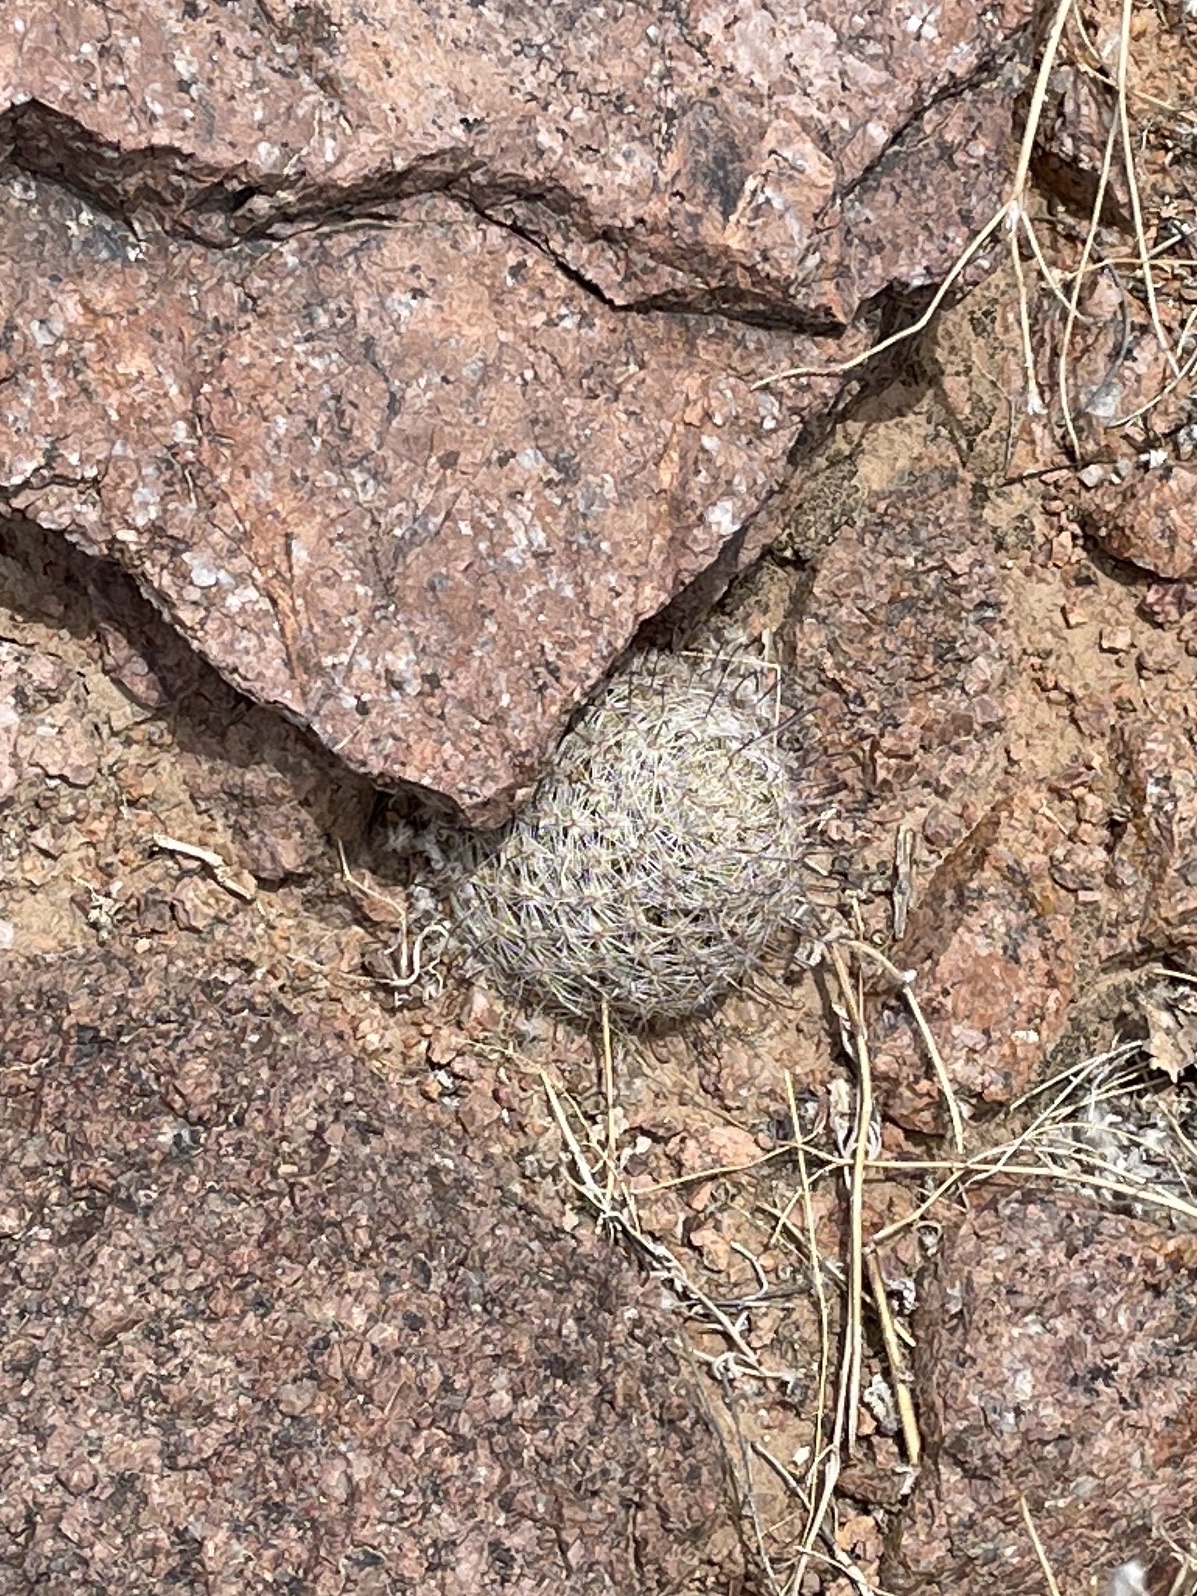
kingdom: Plantae
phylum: Tracheophyta
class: Magnoliopsida
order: Caryophyllales
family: Cactaceae
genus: Cochemiea
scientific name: Cochemiea grahamii
